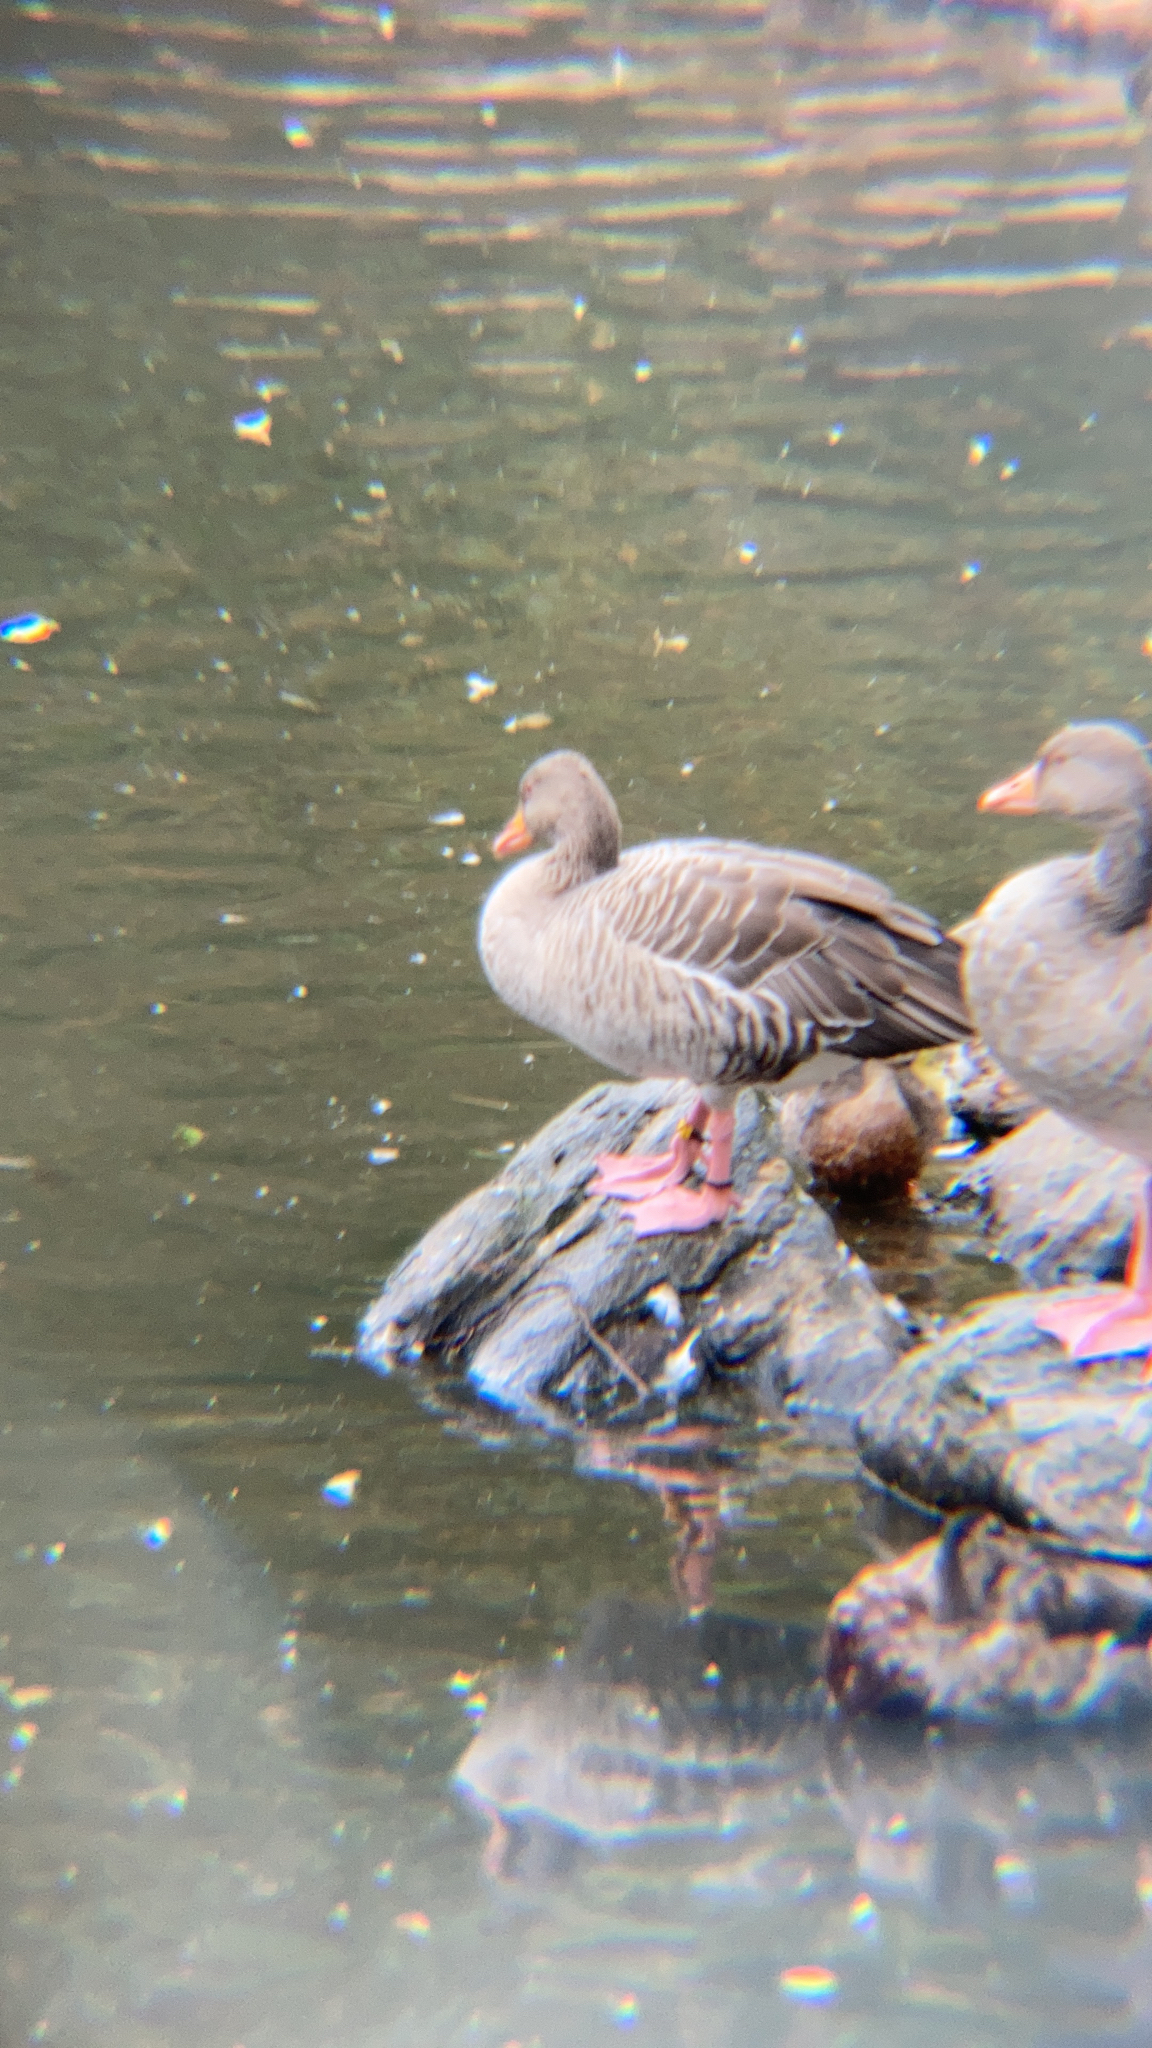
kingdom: Animalia
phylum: Chordata
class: Aves
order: Anseriformes
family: Anatidae
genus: Anser
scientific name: Anser anser
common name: Greylag goose
